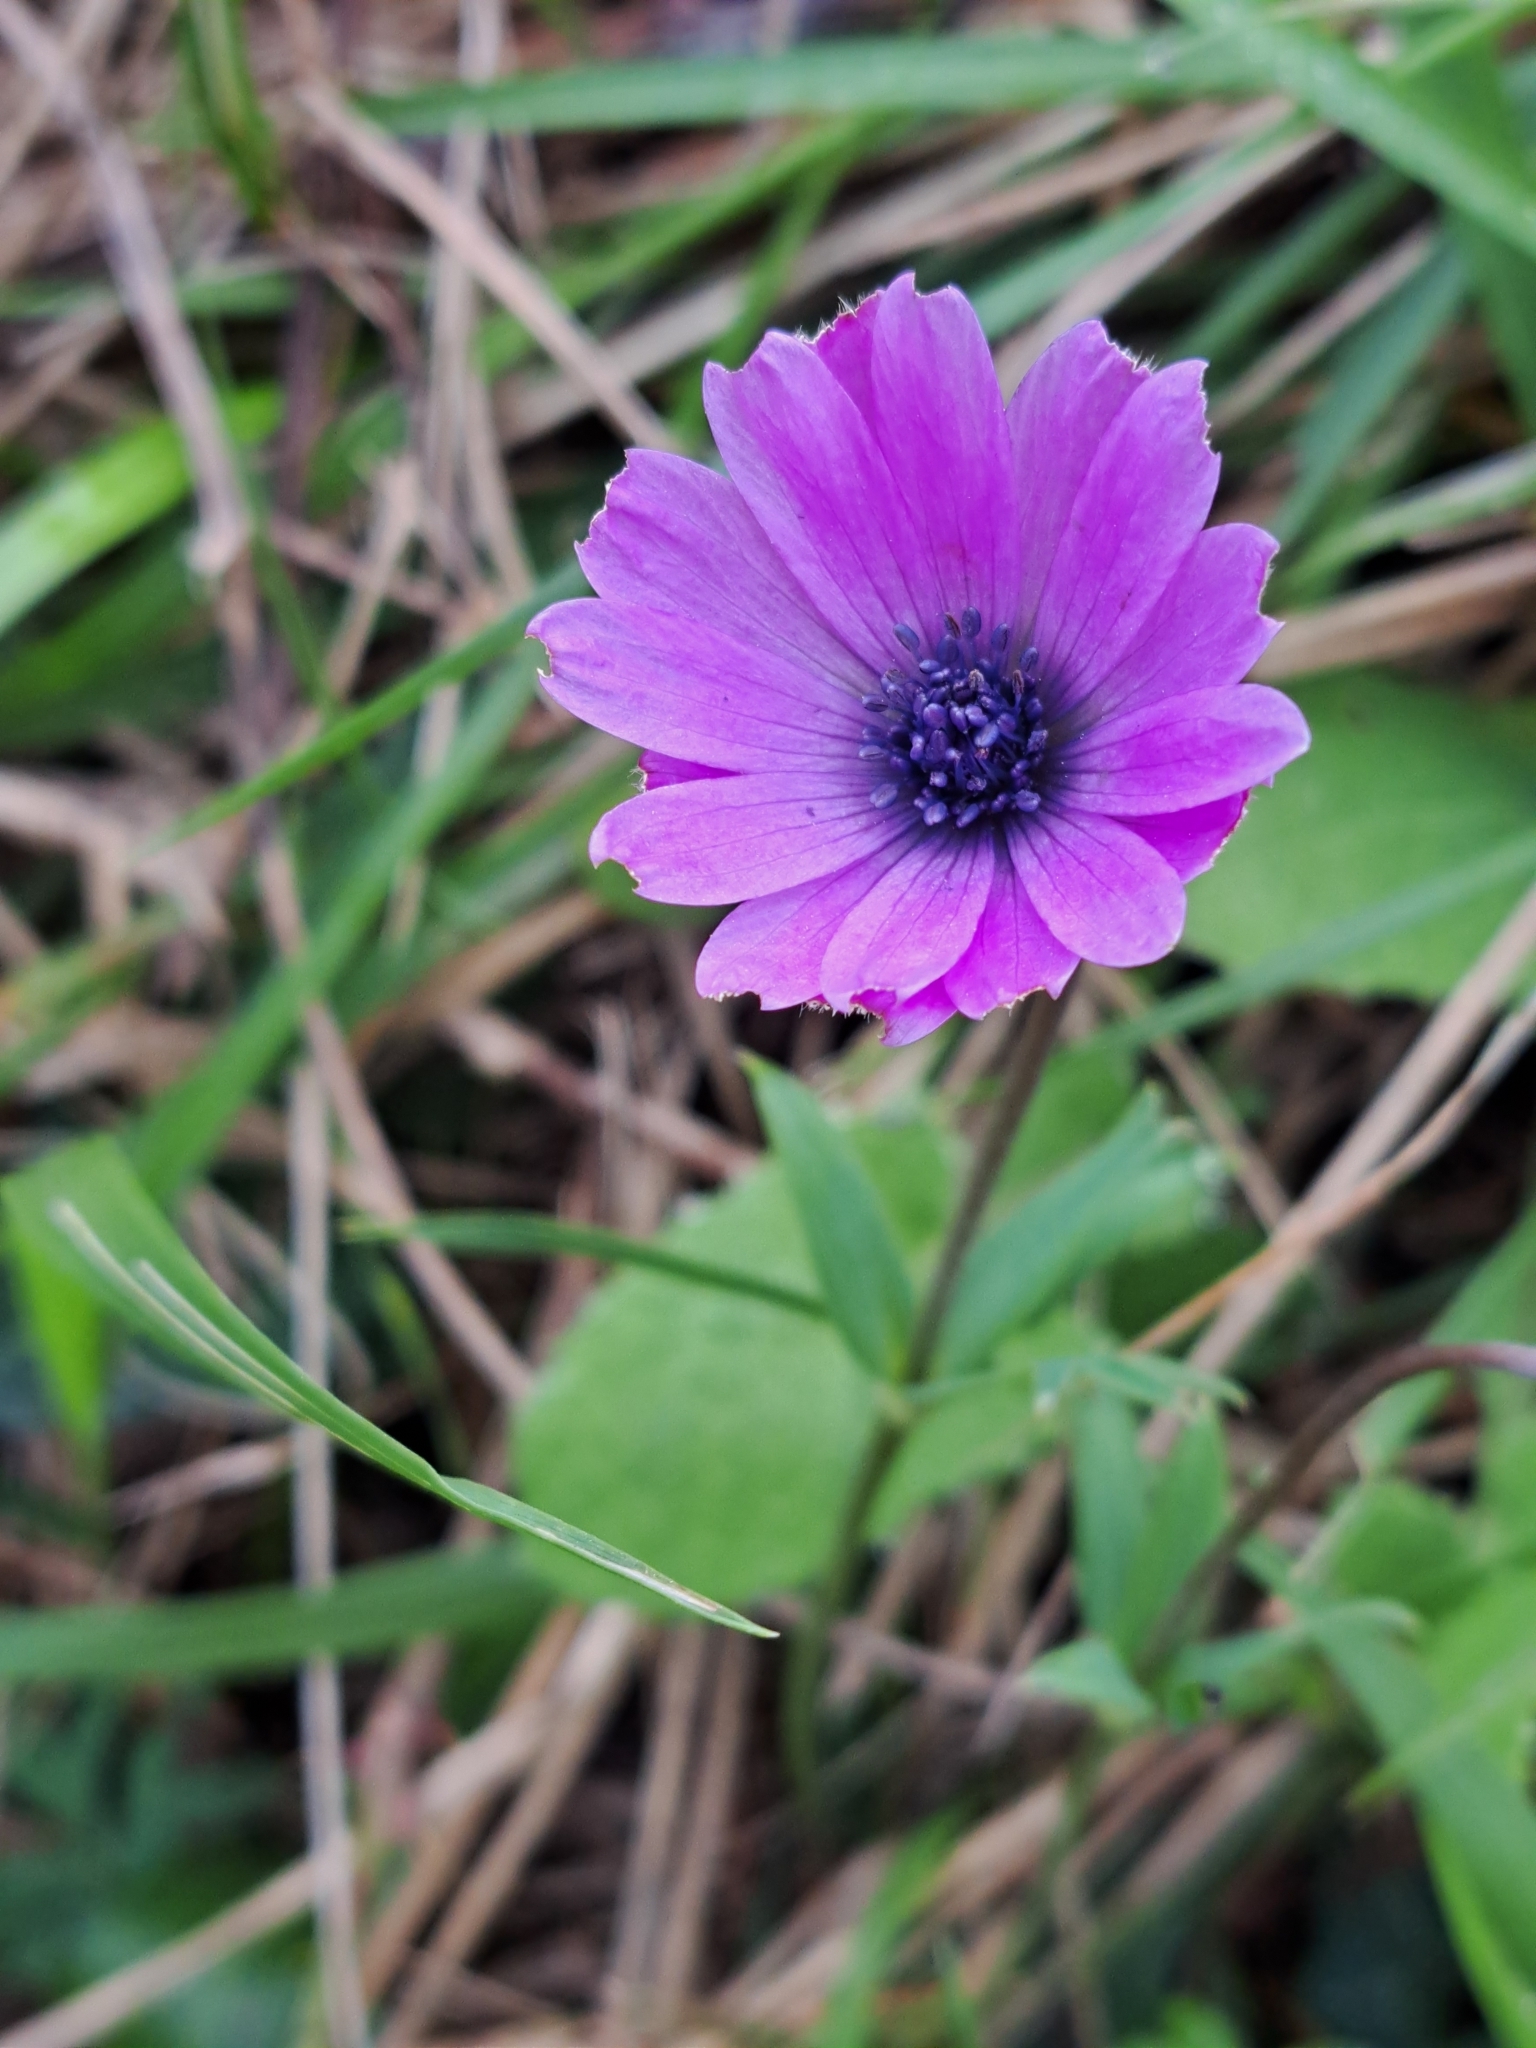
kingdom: Plantae
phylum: Tracheophyta
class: Magnoliopsida
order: Ranunculales
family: Ranunculaceae
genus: Anemone
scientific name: Anemone hortensis
